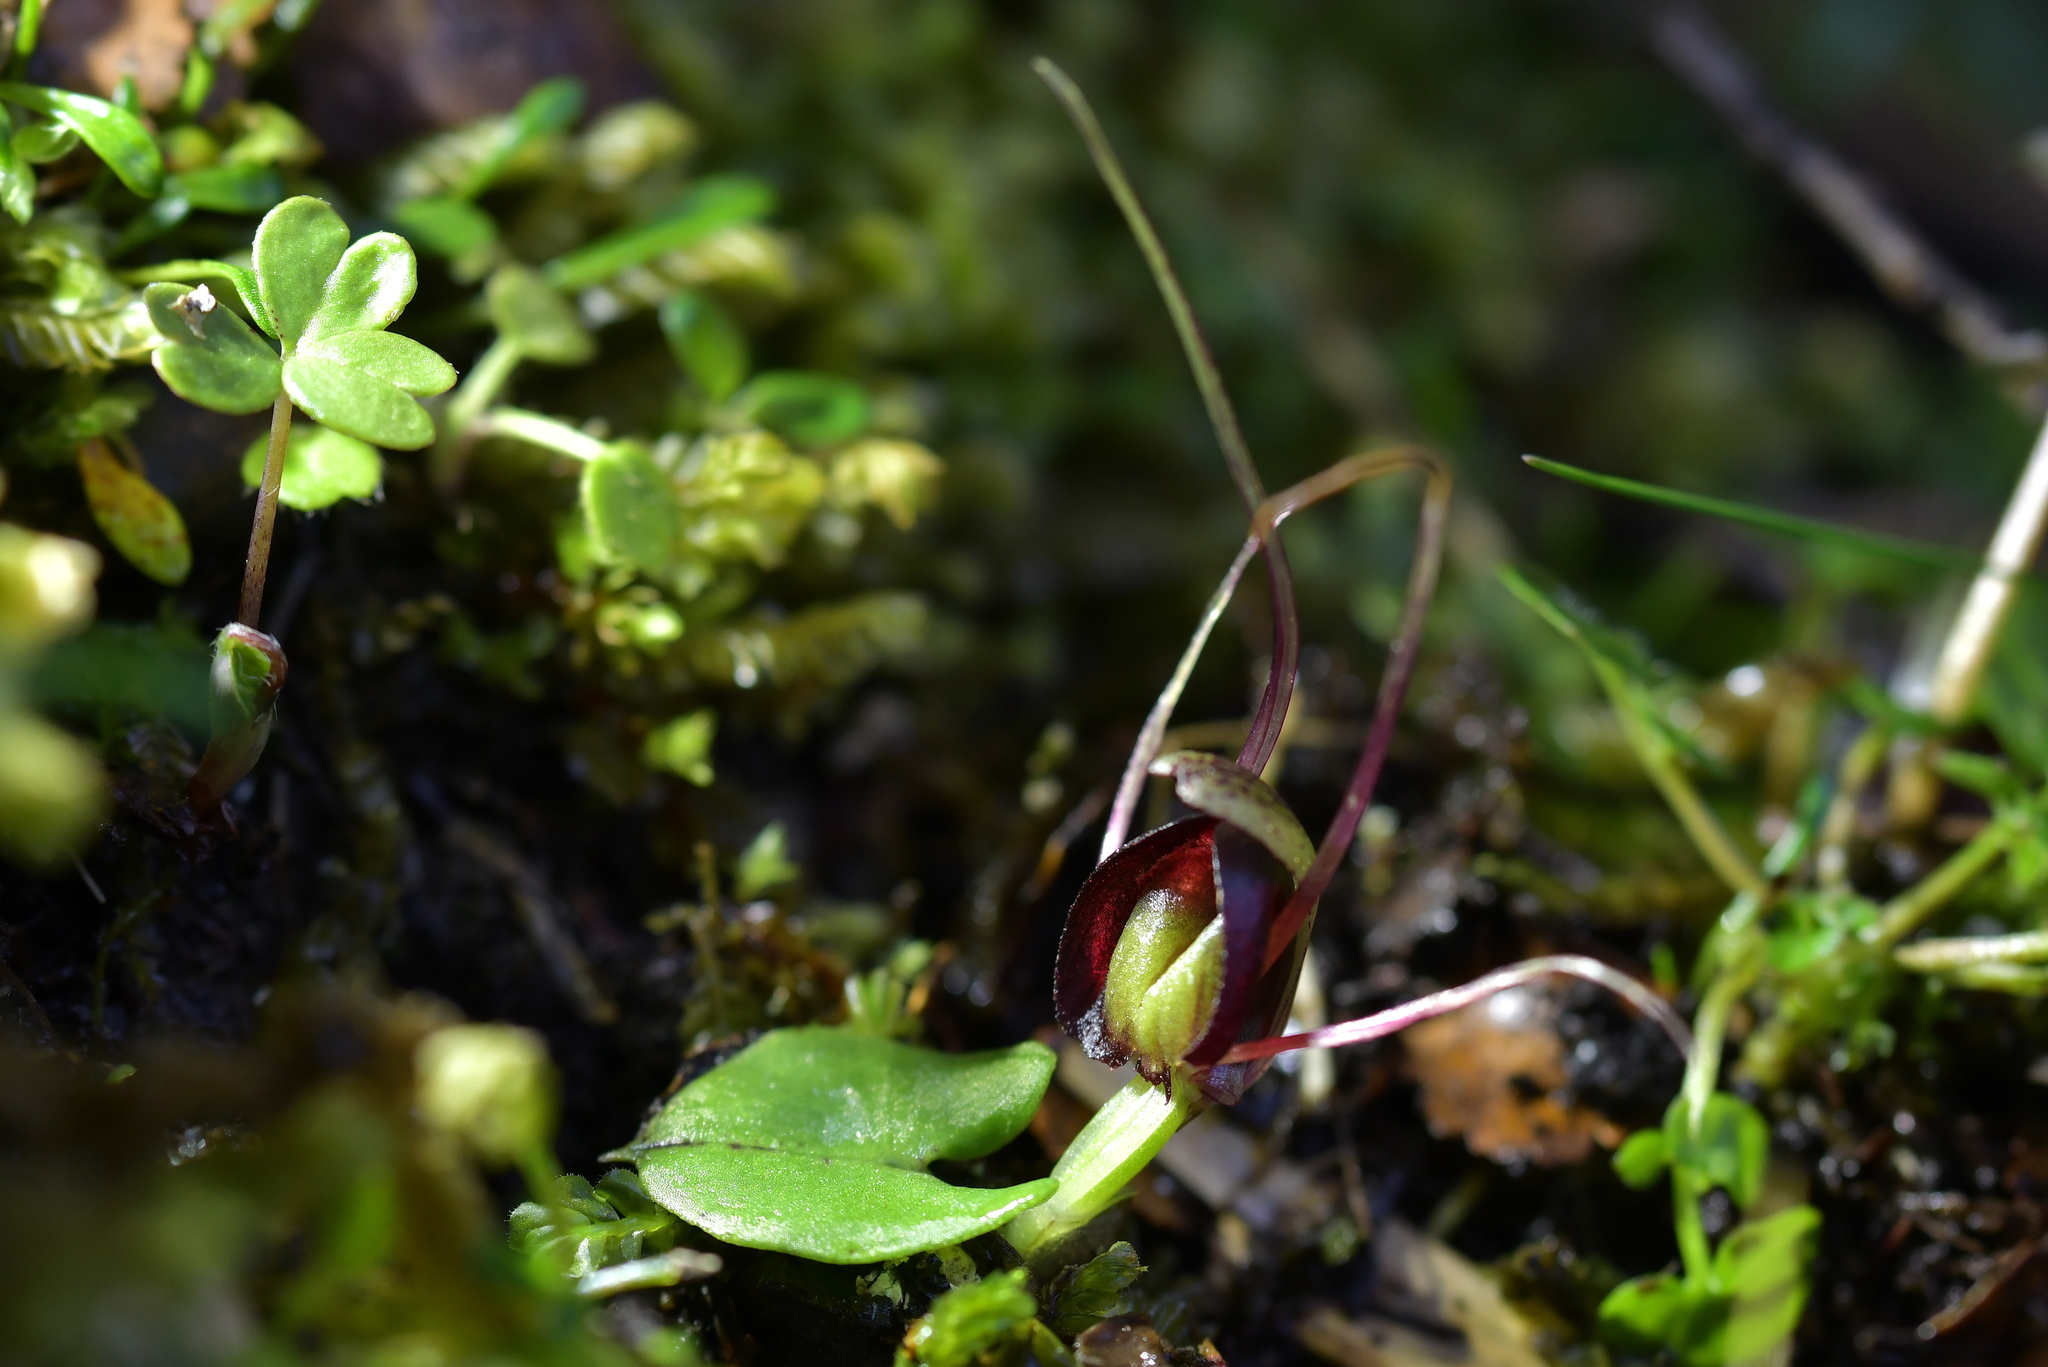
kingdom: Plantae
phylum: Tracheophyta
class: Liliopsida
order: Asparagales
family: Orchidaceae
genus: Corybas
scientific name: Corybas confusus
